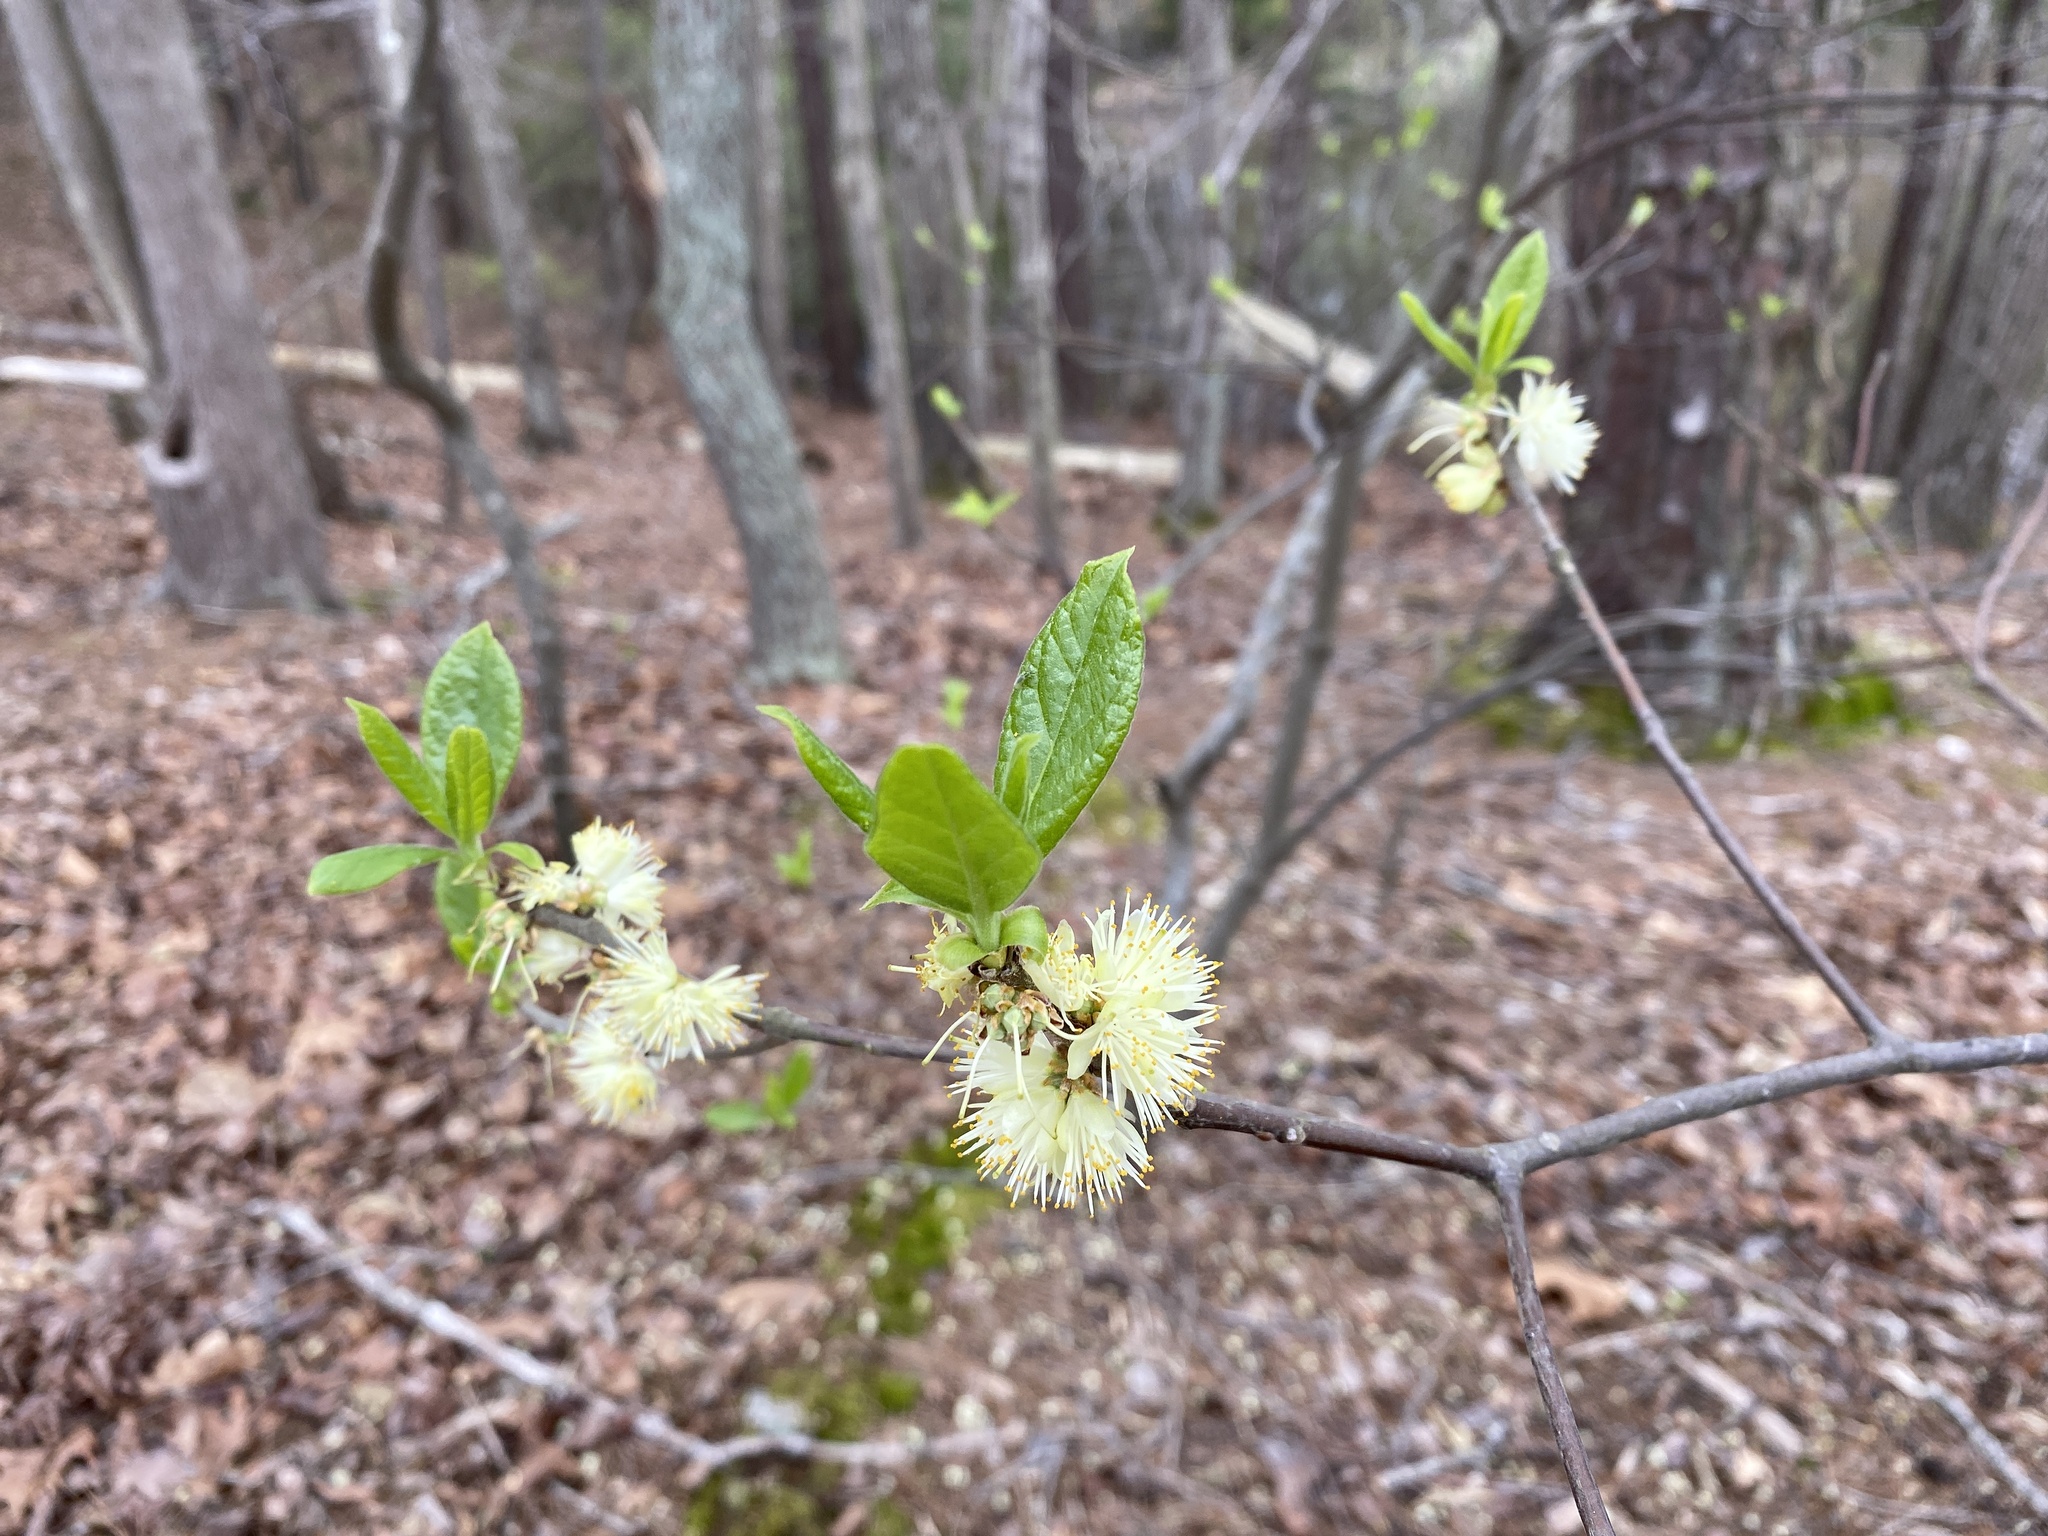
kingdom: Plantae
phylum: Tracheophyta
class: Magnoliopsida
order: Ericales
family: Symplocaceae
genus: Symplocos
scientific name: Symplocos tinctoria
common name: Horse-sugar
